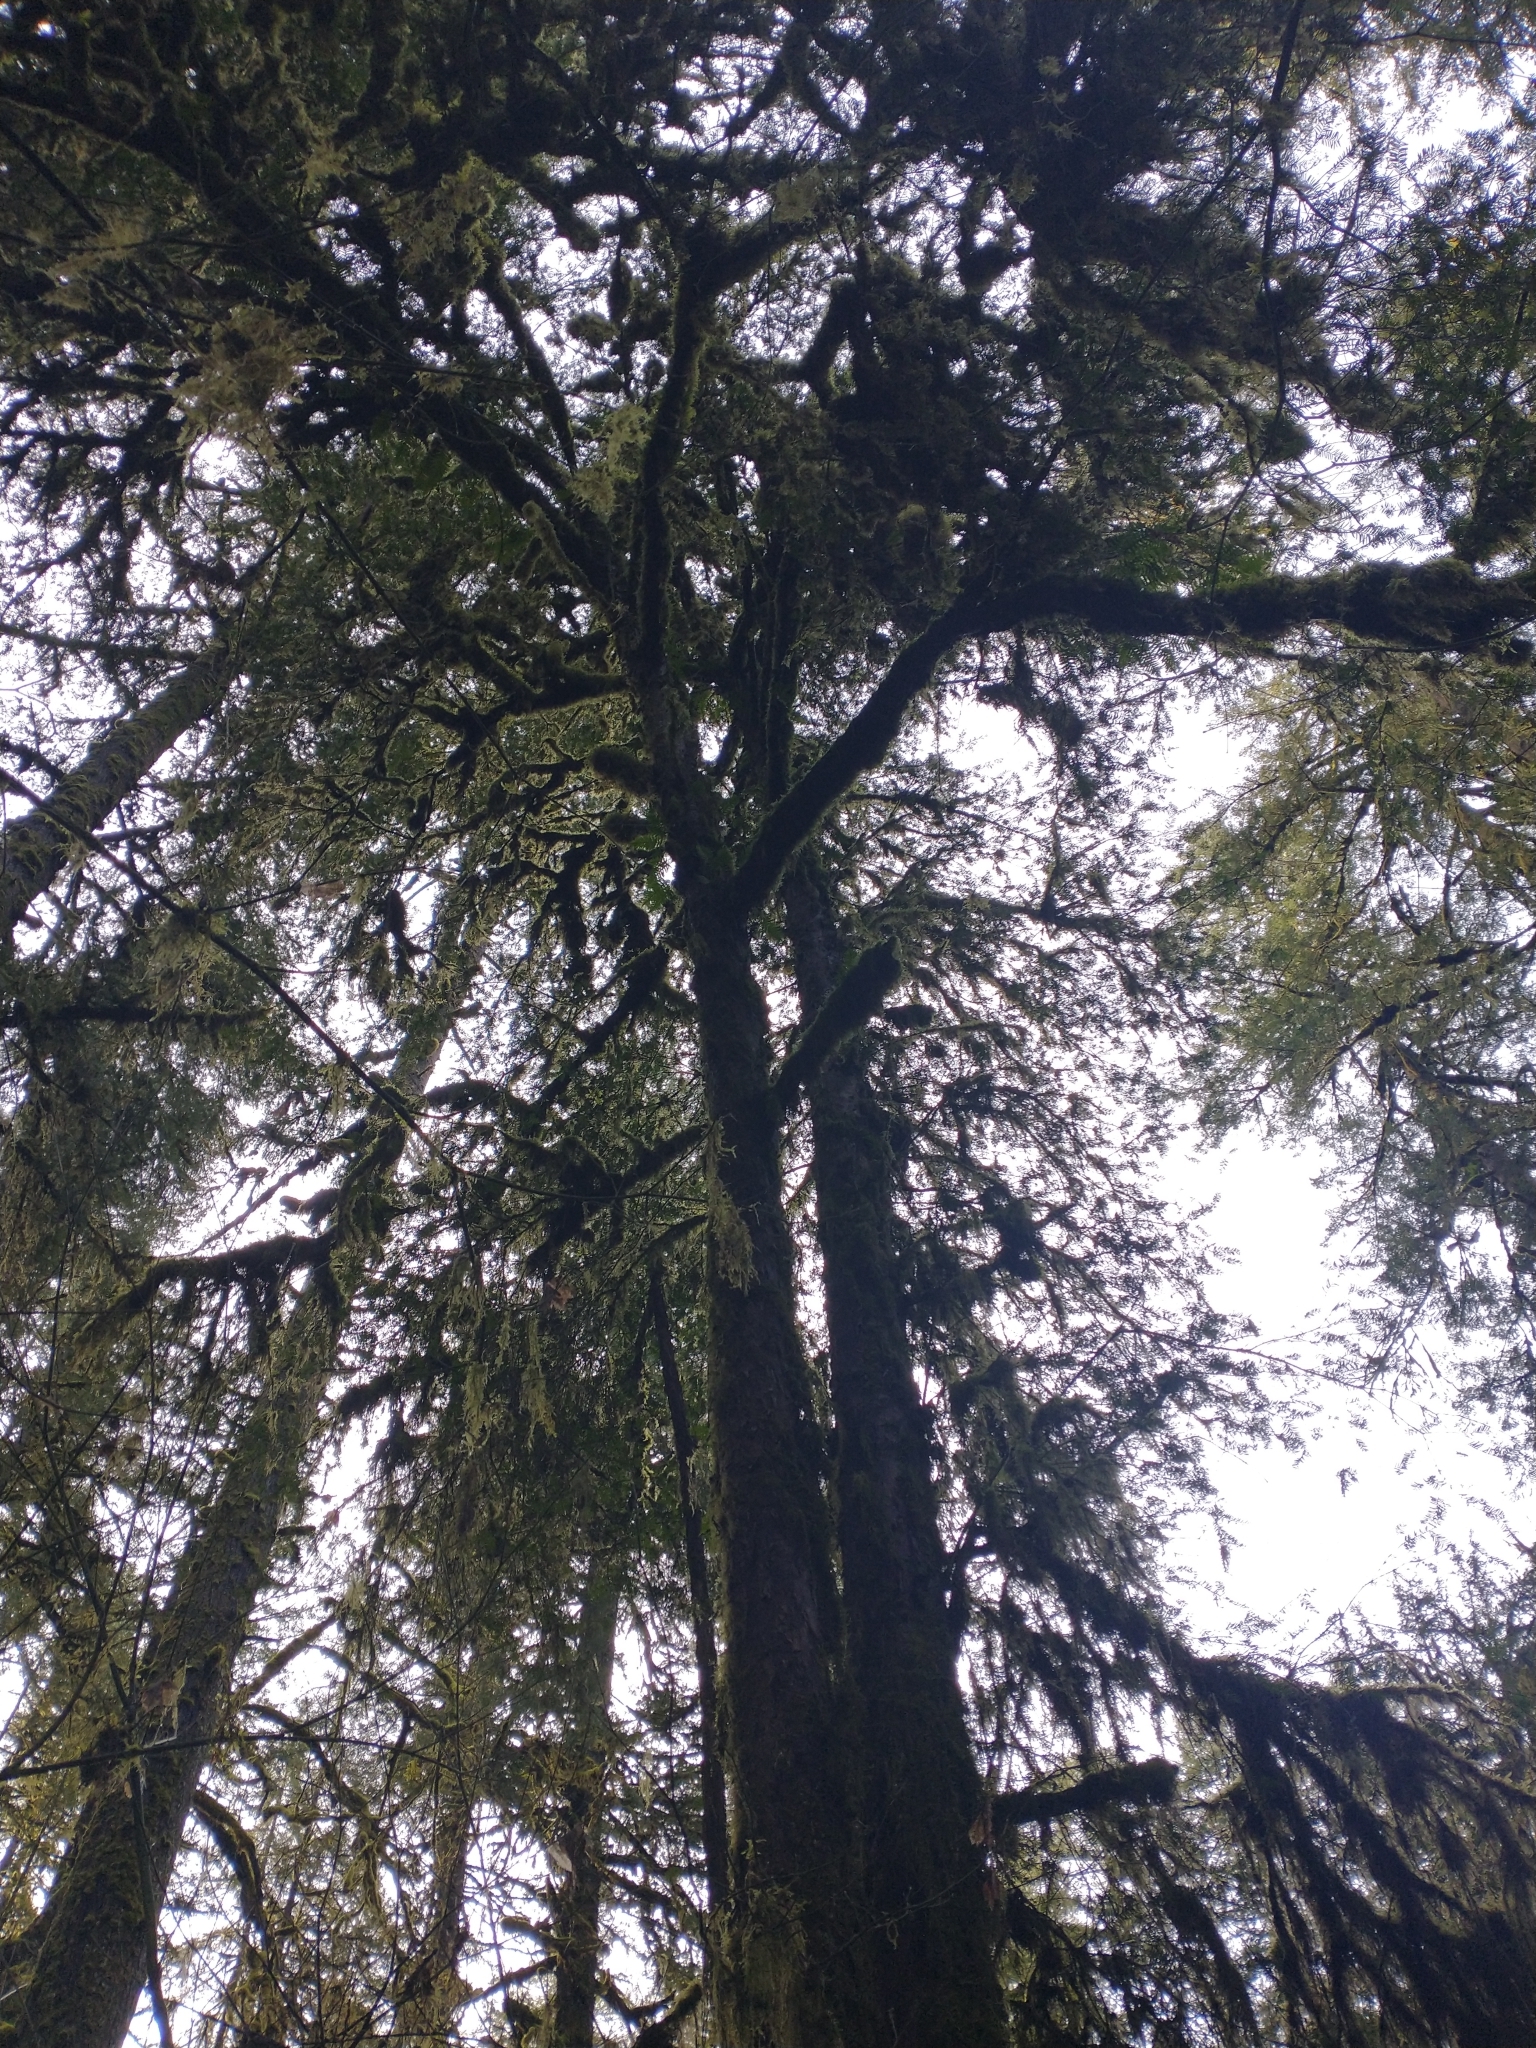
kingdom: Plantae
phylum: Tracheophyta
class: Pinopsida
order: Pinales
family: Taxaceae
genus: Taxus
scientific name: Taxus brevifolia
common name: Pacific yew
